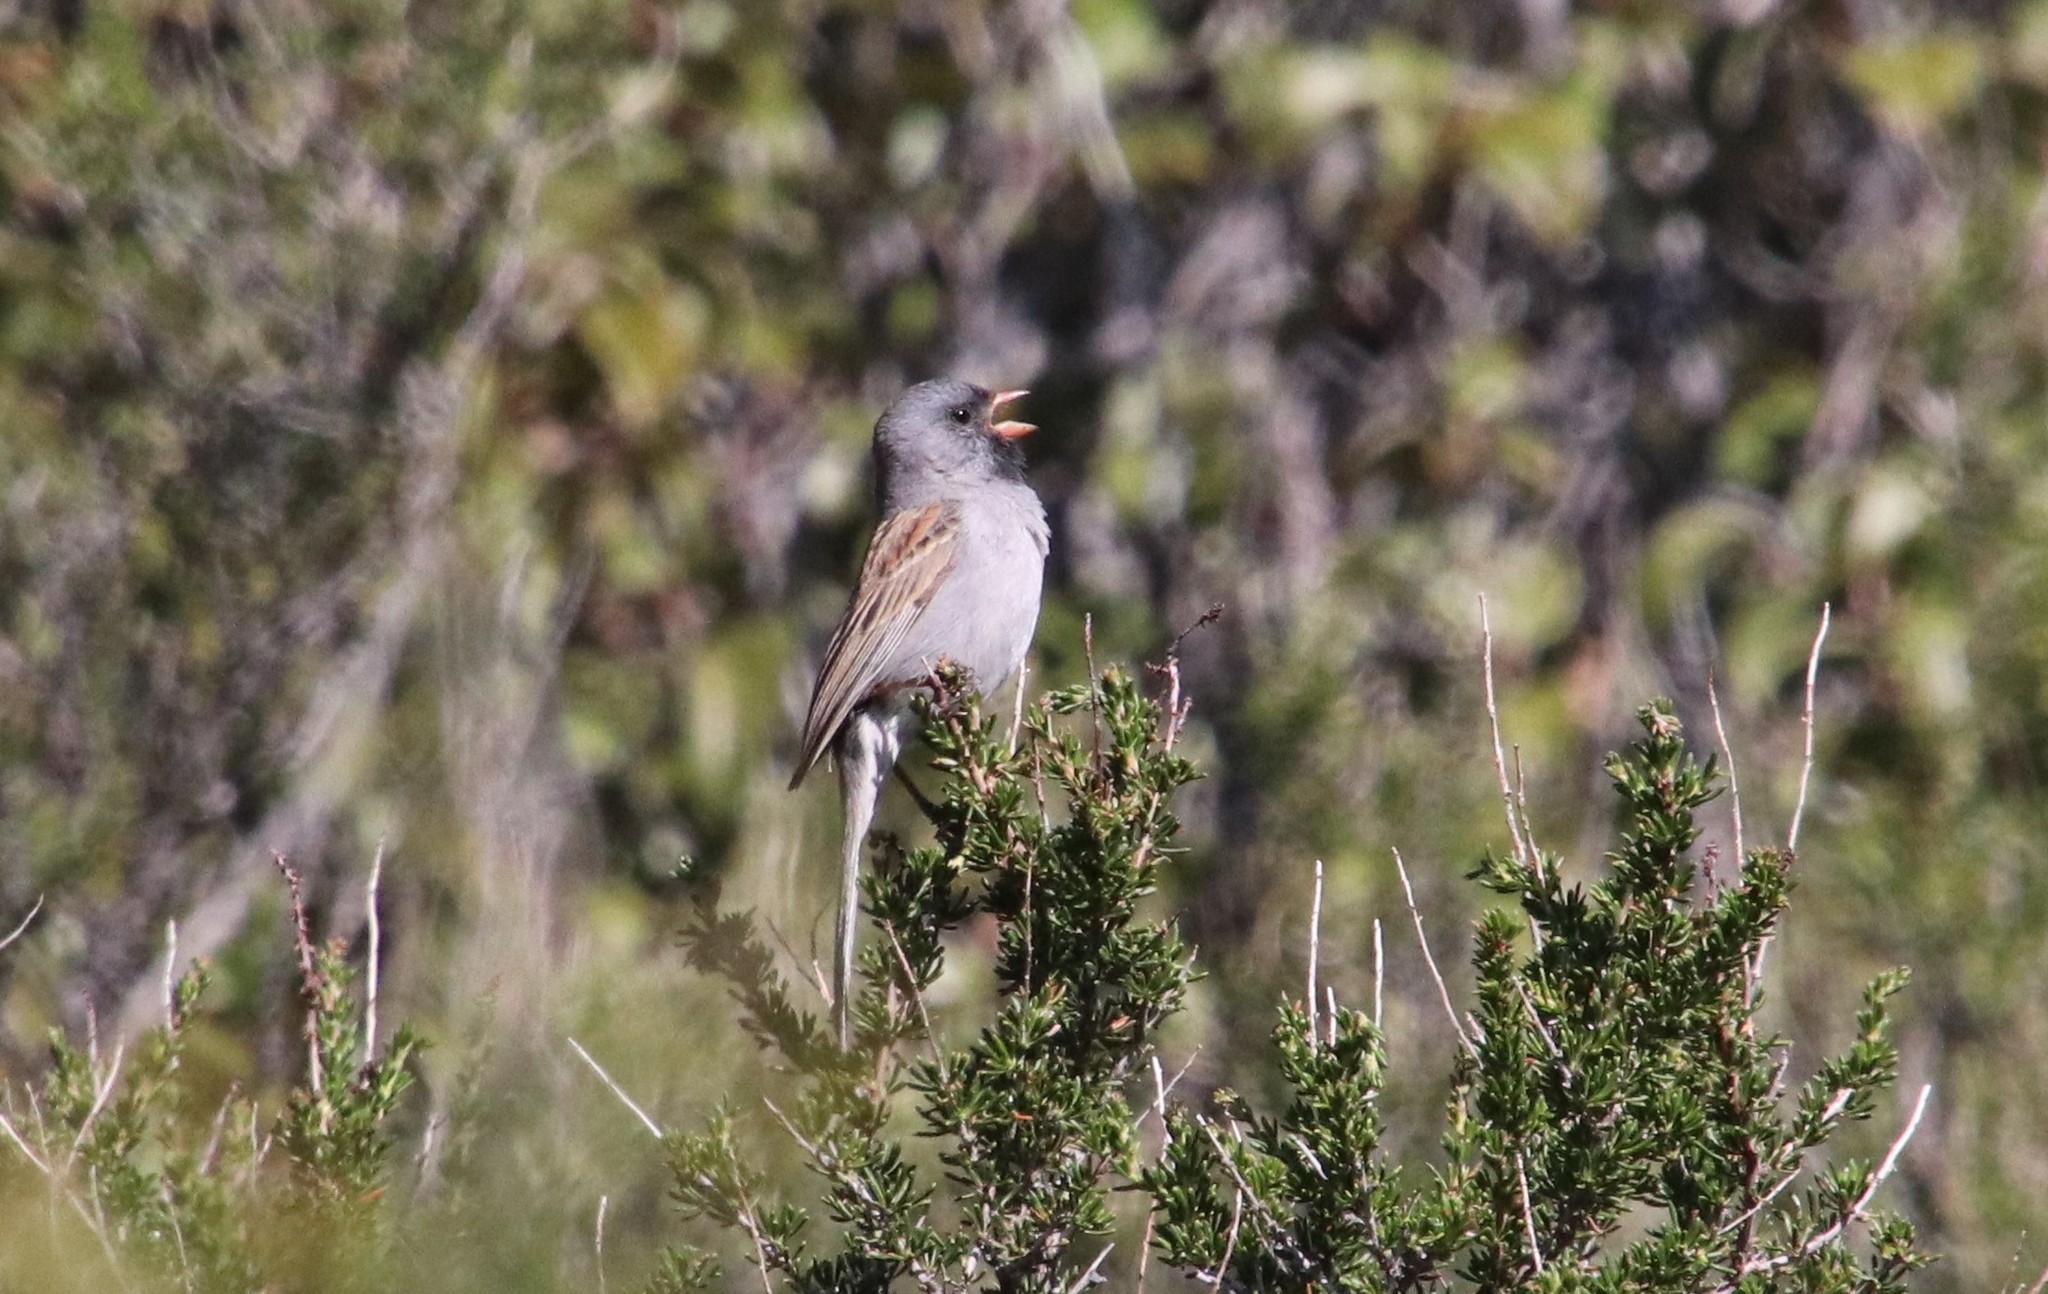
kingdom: Animalia
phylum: Chordata
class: Aves
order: Passeriformes
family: Passerellidae
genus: Spizella
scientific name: Spizella atrogularis
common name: Black-chinned sparrow
